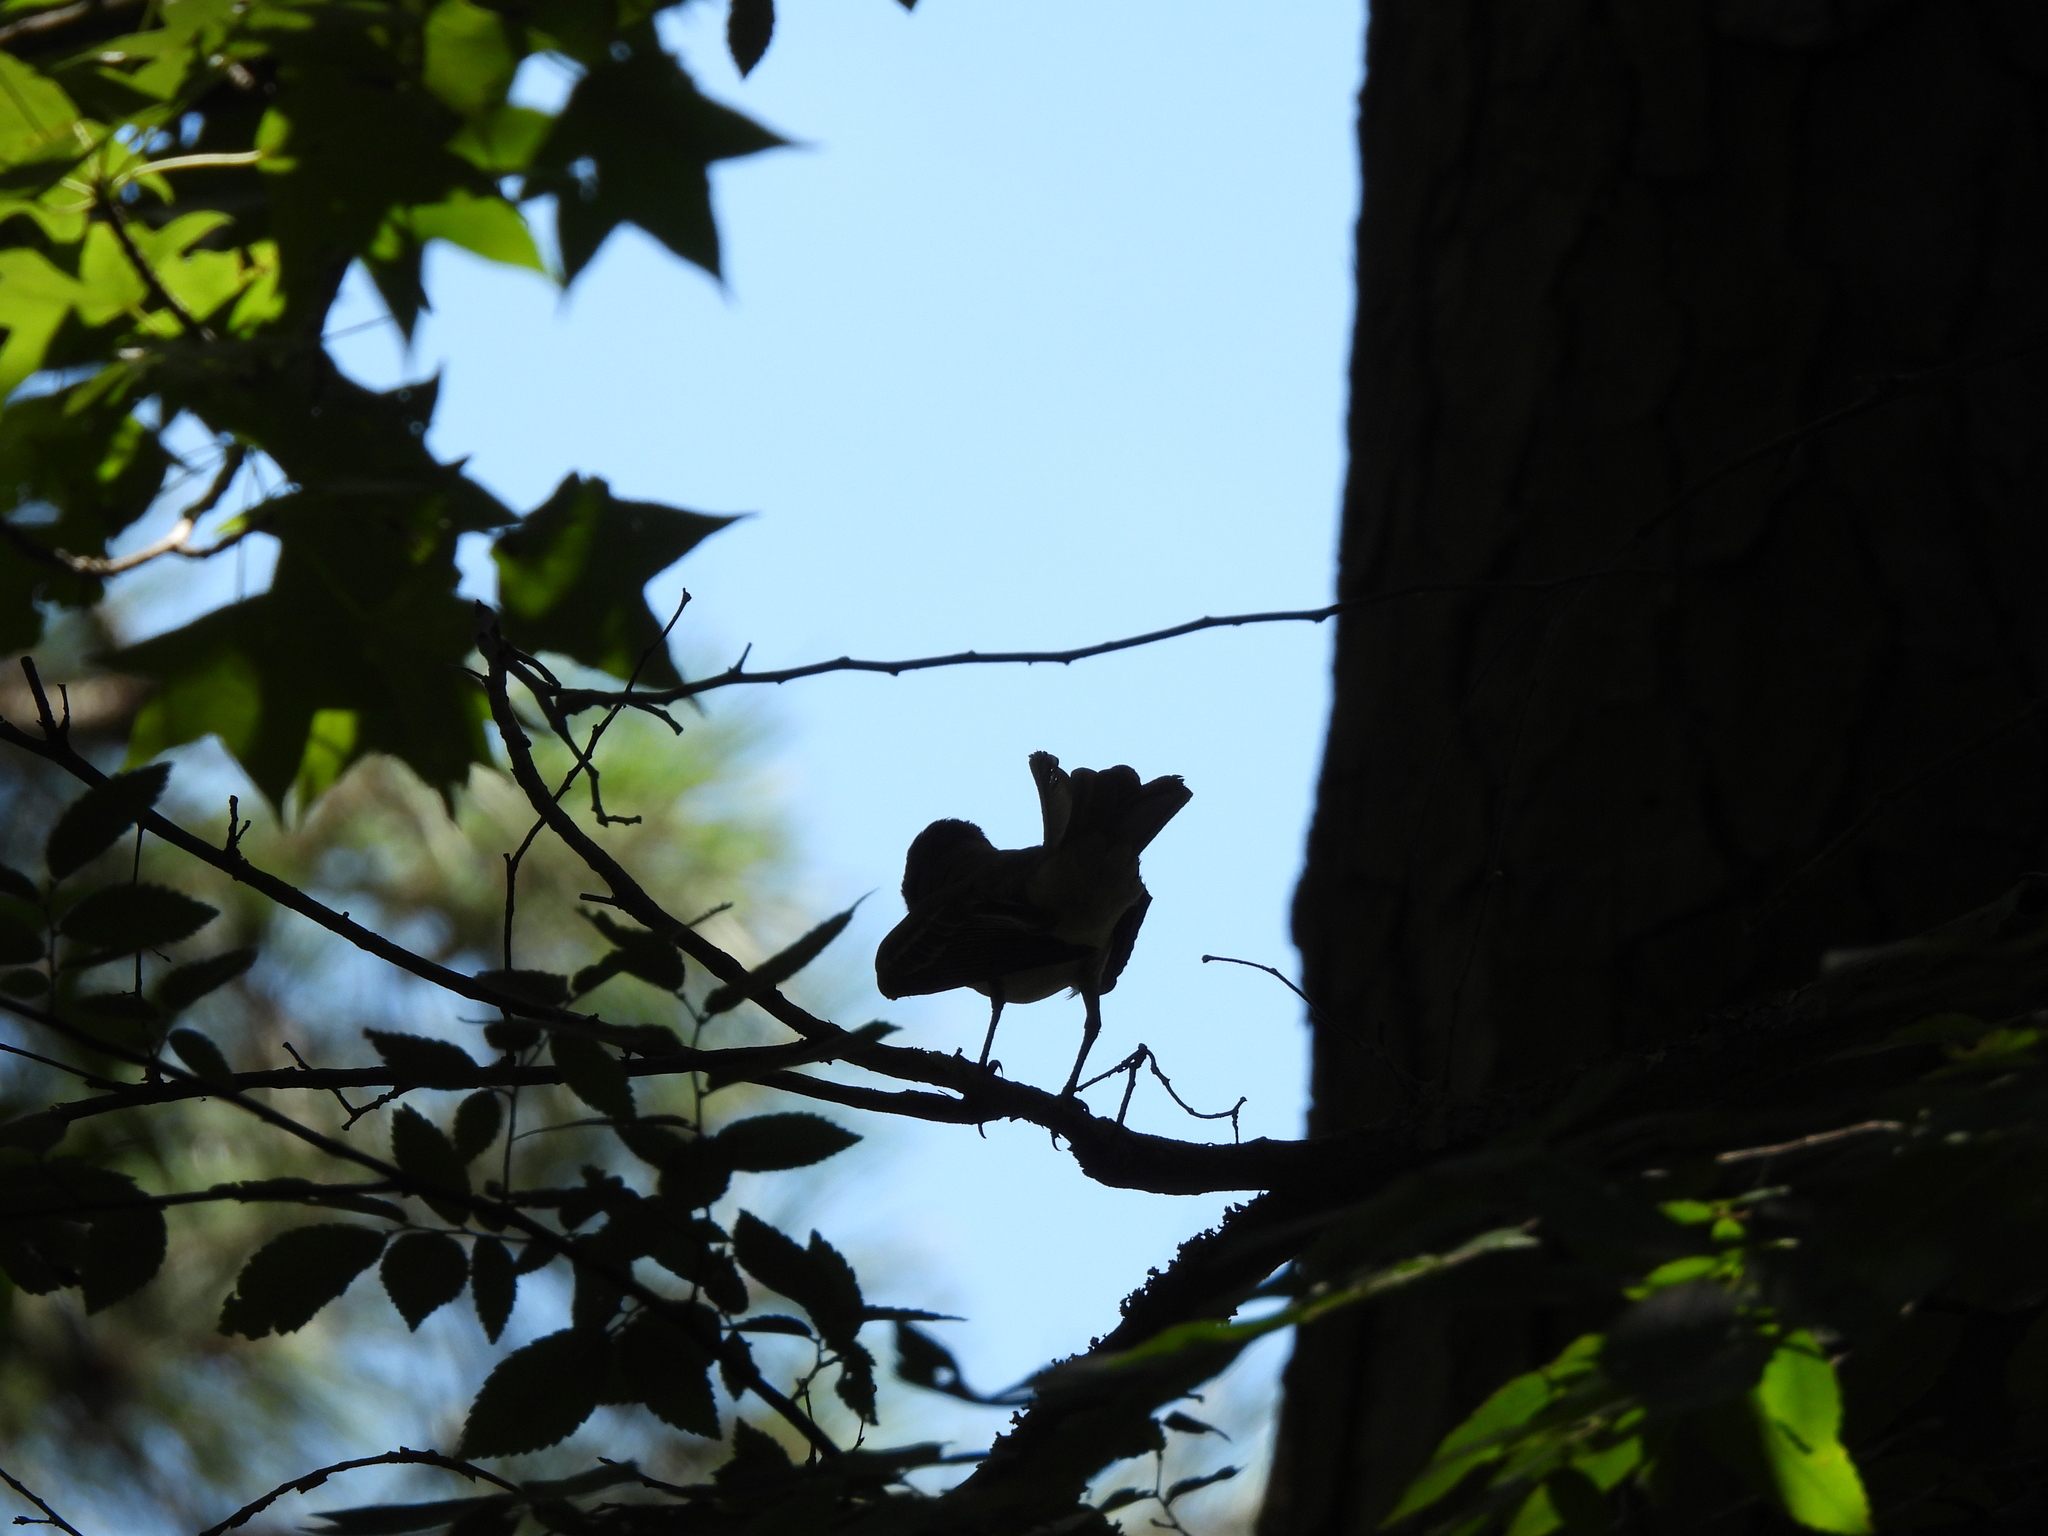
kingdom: Animalia
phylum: Chordata
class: Aves
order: Passeriformes
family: Tyrannidae
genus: Myiarchus
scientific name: Myiarchus crinitus
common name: Great crested flycatcher
